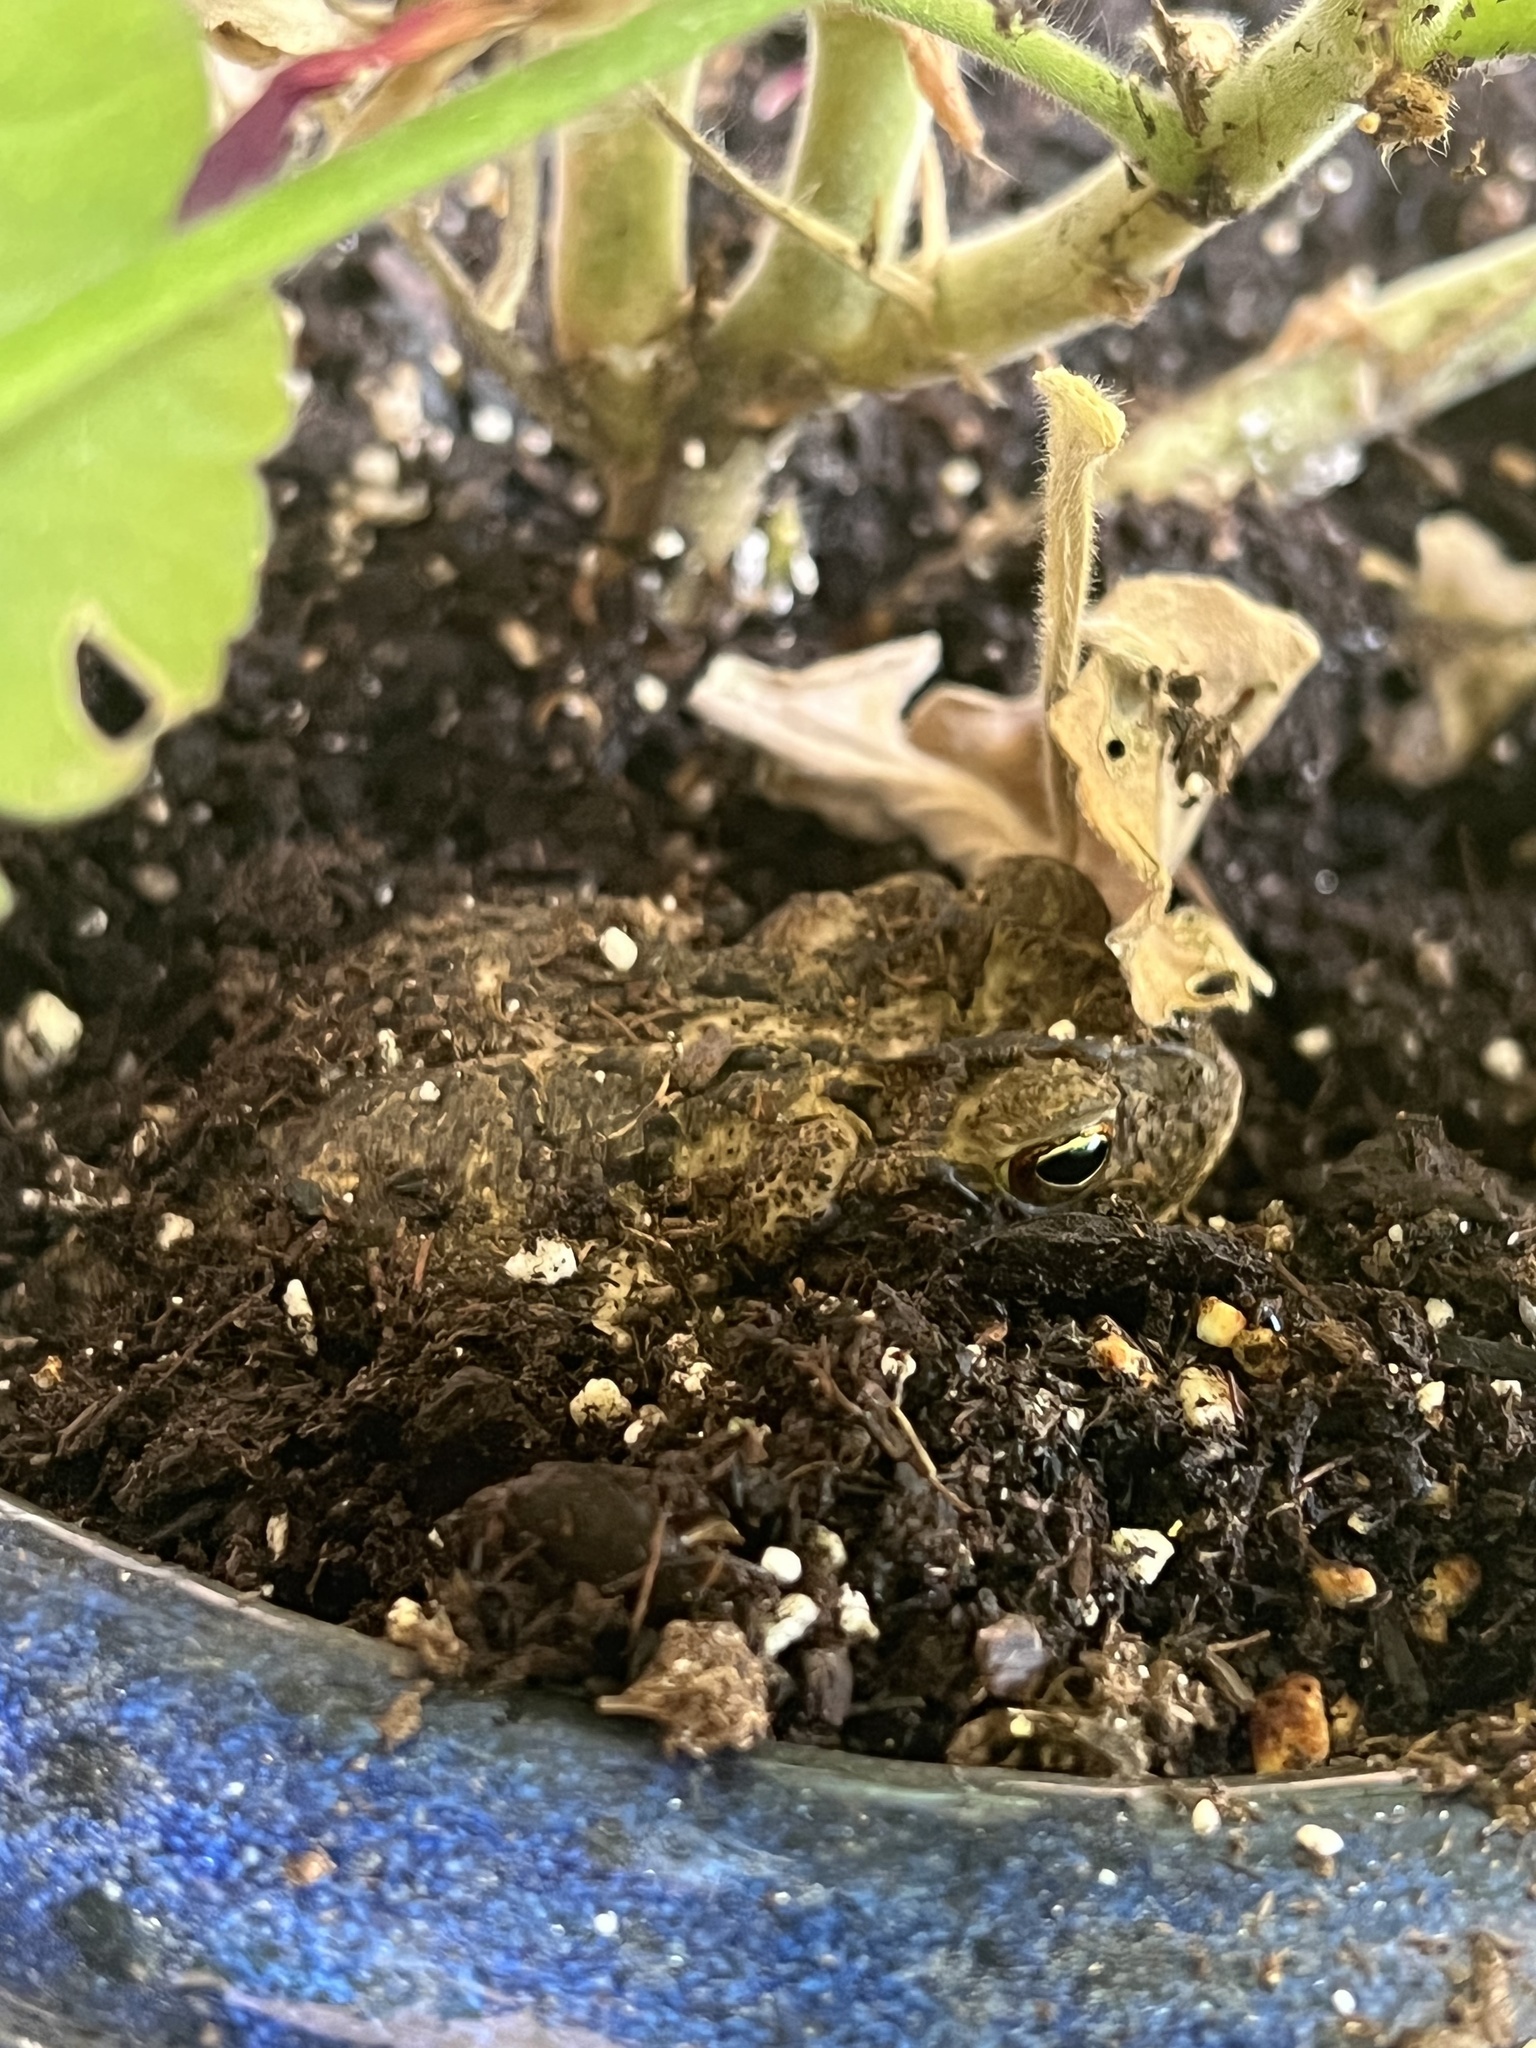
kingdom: Animalia
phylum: Chordata
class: Amphibia
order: Anura
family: Bufonidae
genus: Incilius
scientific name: Incilius nebulifer
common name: Gulf coast toad
